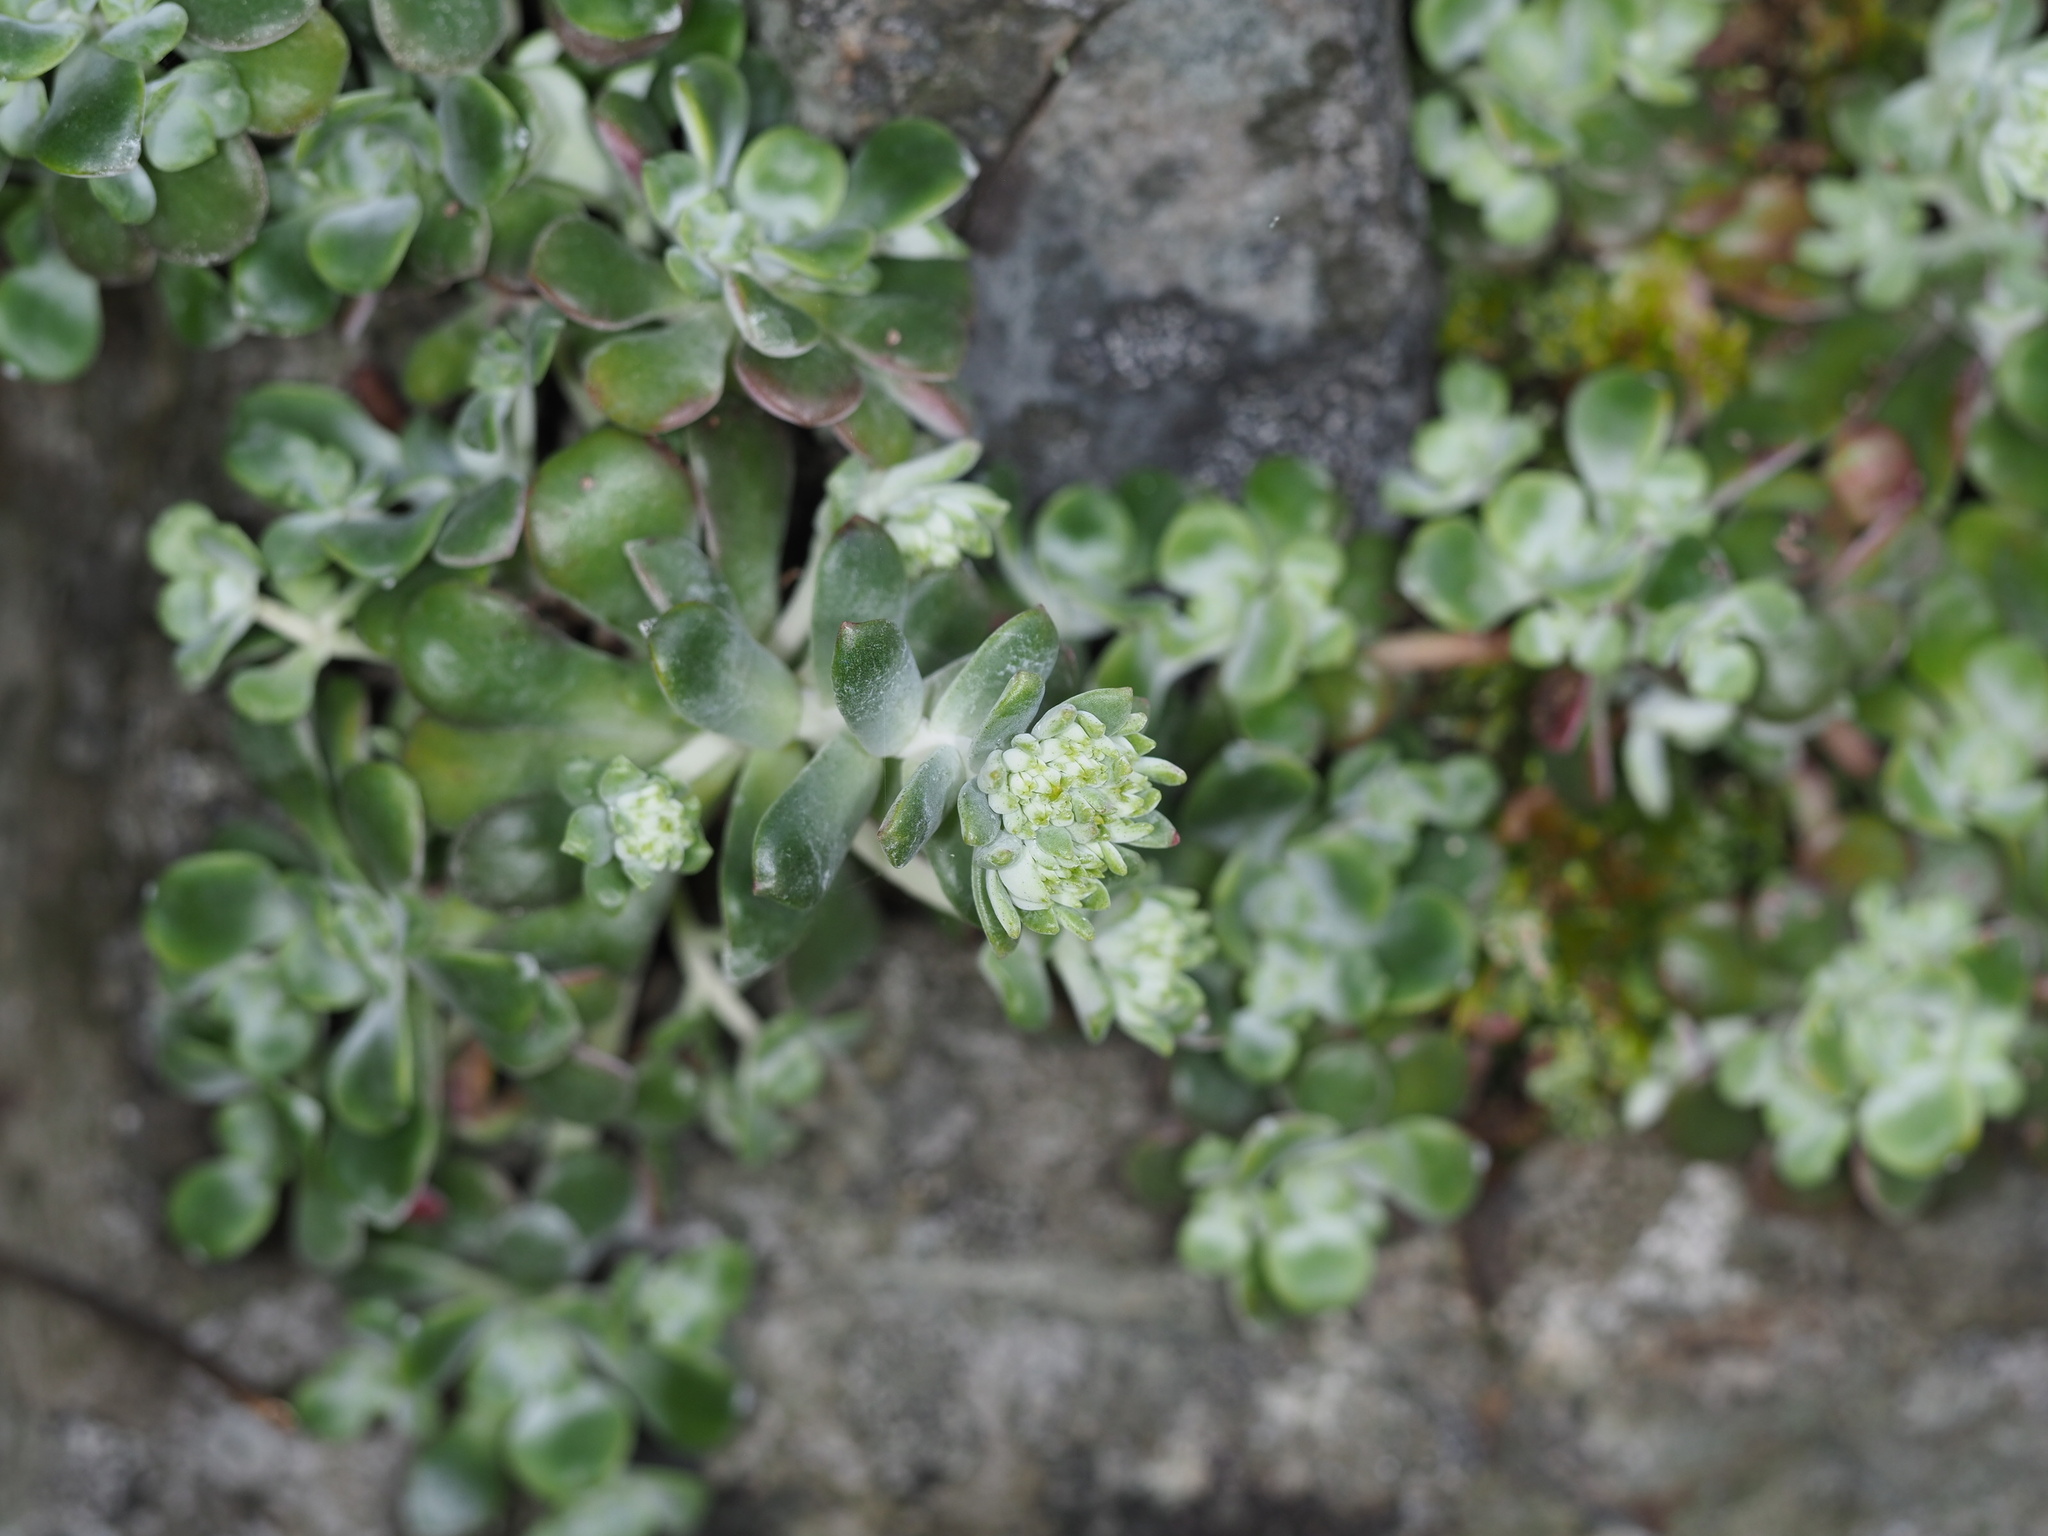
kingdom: Plantae
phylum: Tracheophyta
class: Magnoliopsida
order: Saxifragales
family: Crassulaceae
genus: Sedum
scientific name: Sedum spathulifolium
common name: Colorado stonecrop
